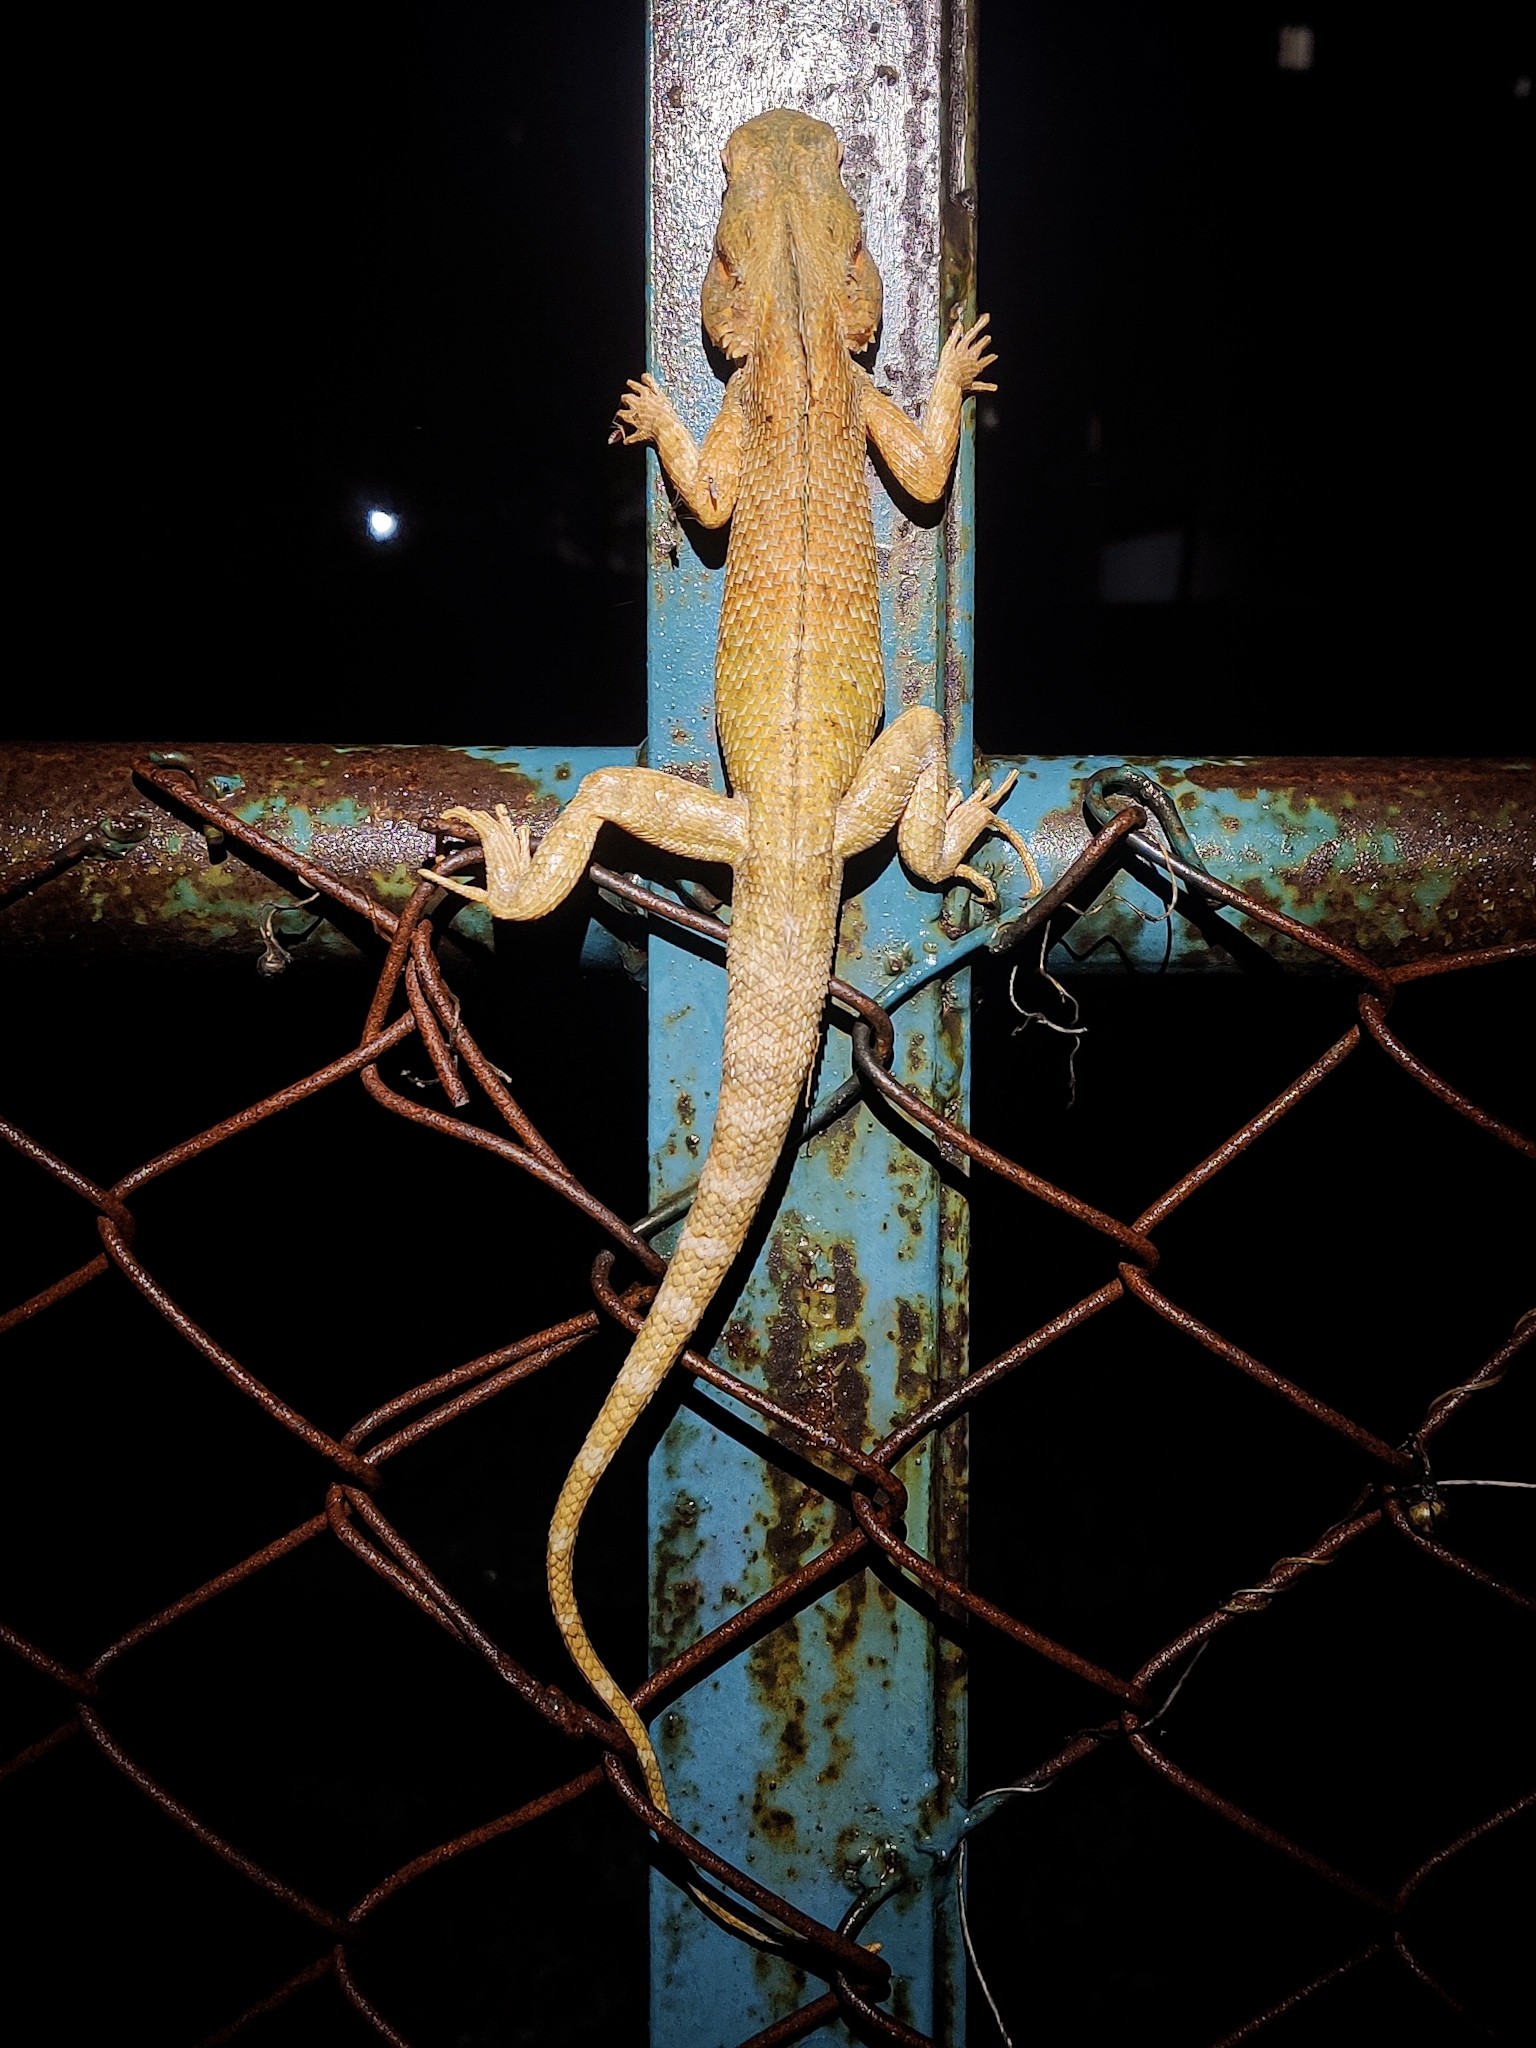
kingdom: Animalia
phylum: Chordata
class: Squamata
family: Agamidae
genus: Calotes
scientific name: Calotes versicolor
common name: Oriental garden lizard
